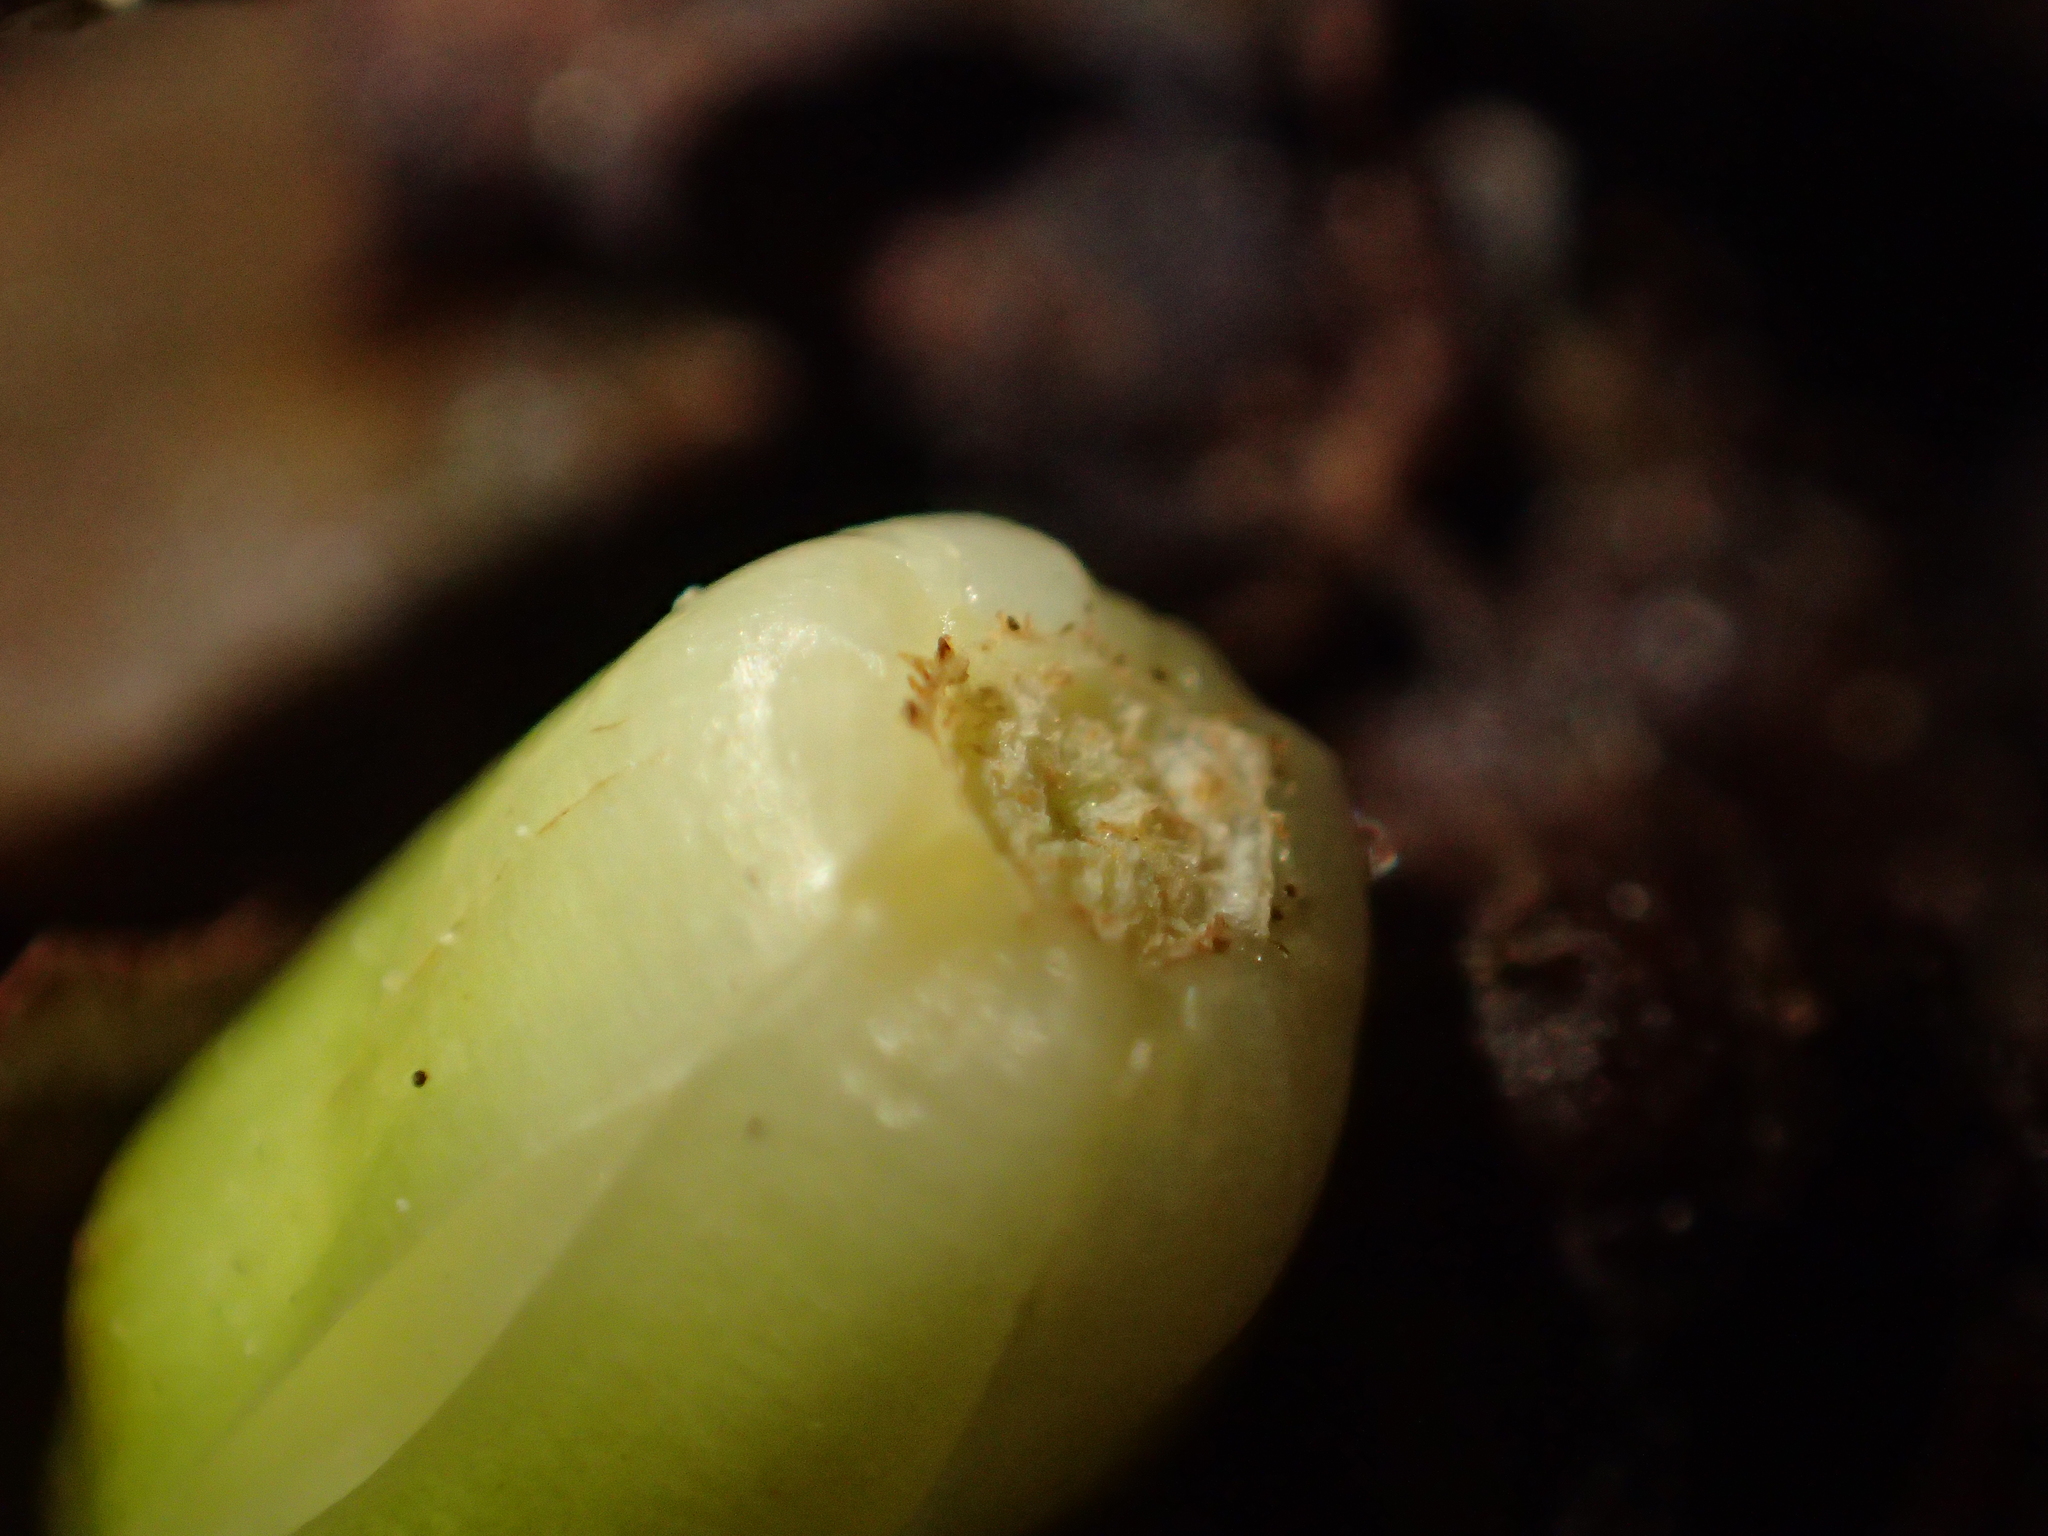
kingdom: Plantae
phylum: Tracheophyta
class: Magnoliopsida
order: Sapindales
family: Meliaceae
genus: Didymocheton
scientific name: Didymocheton spectabilis
